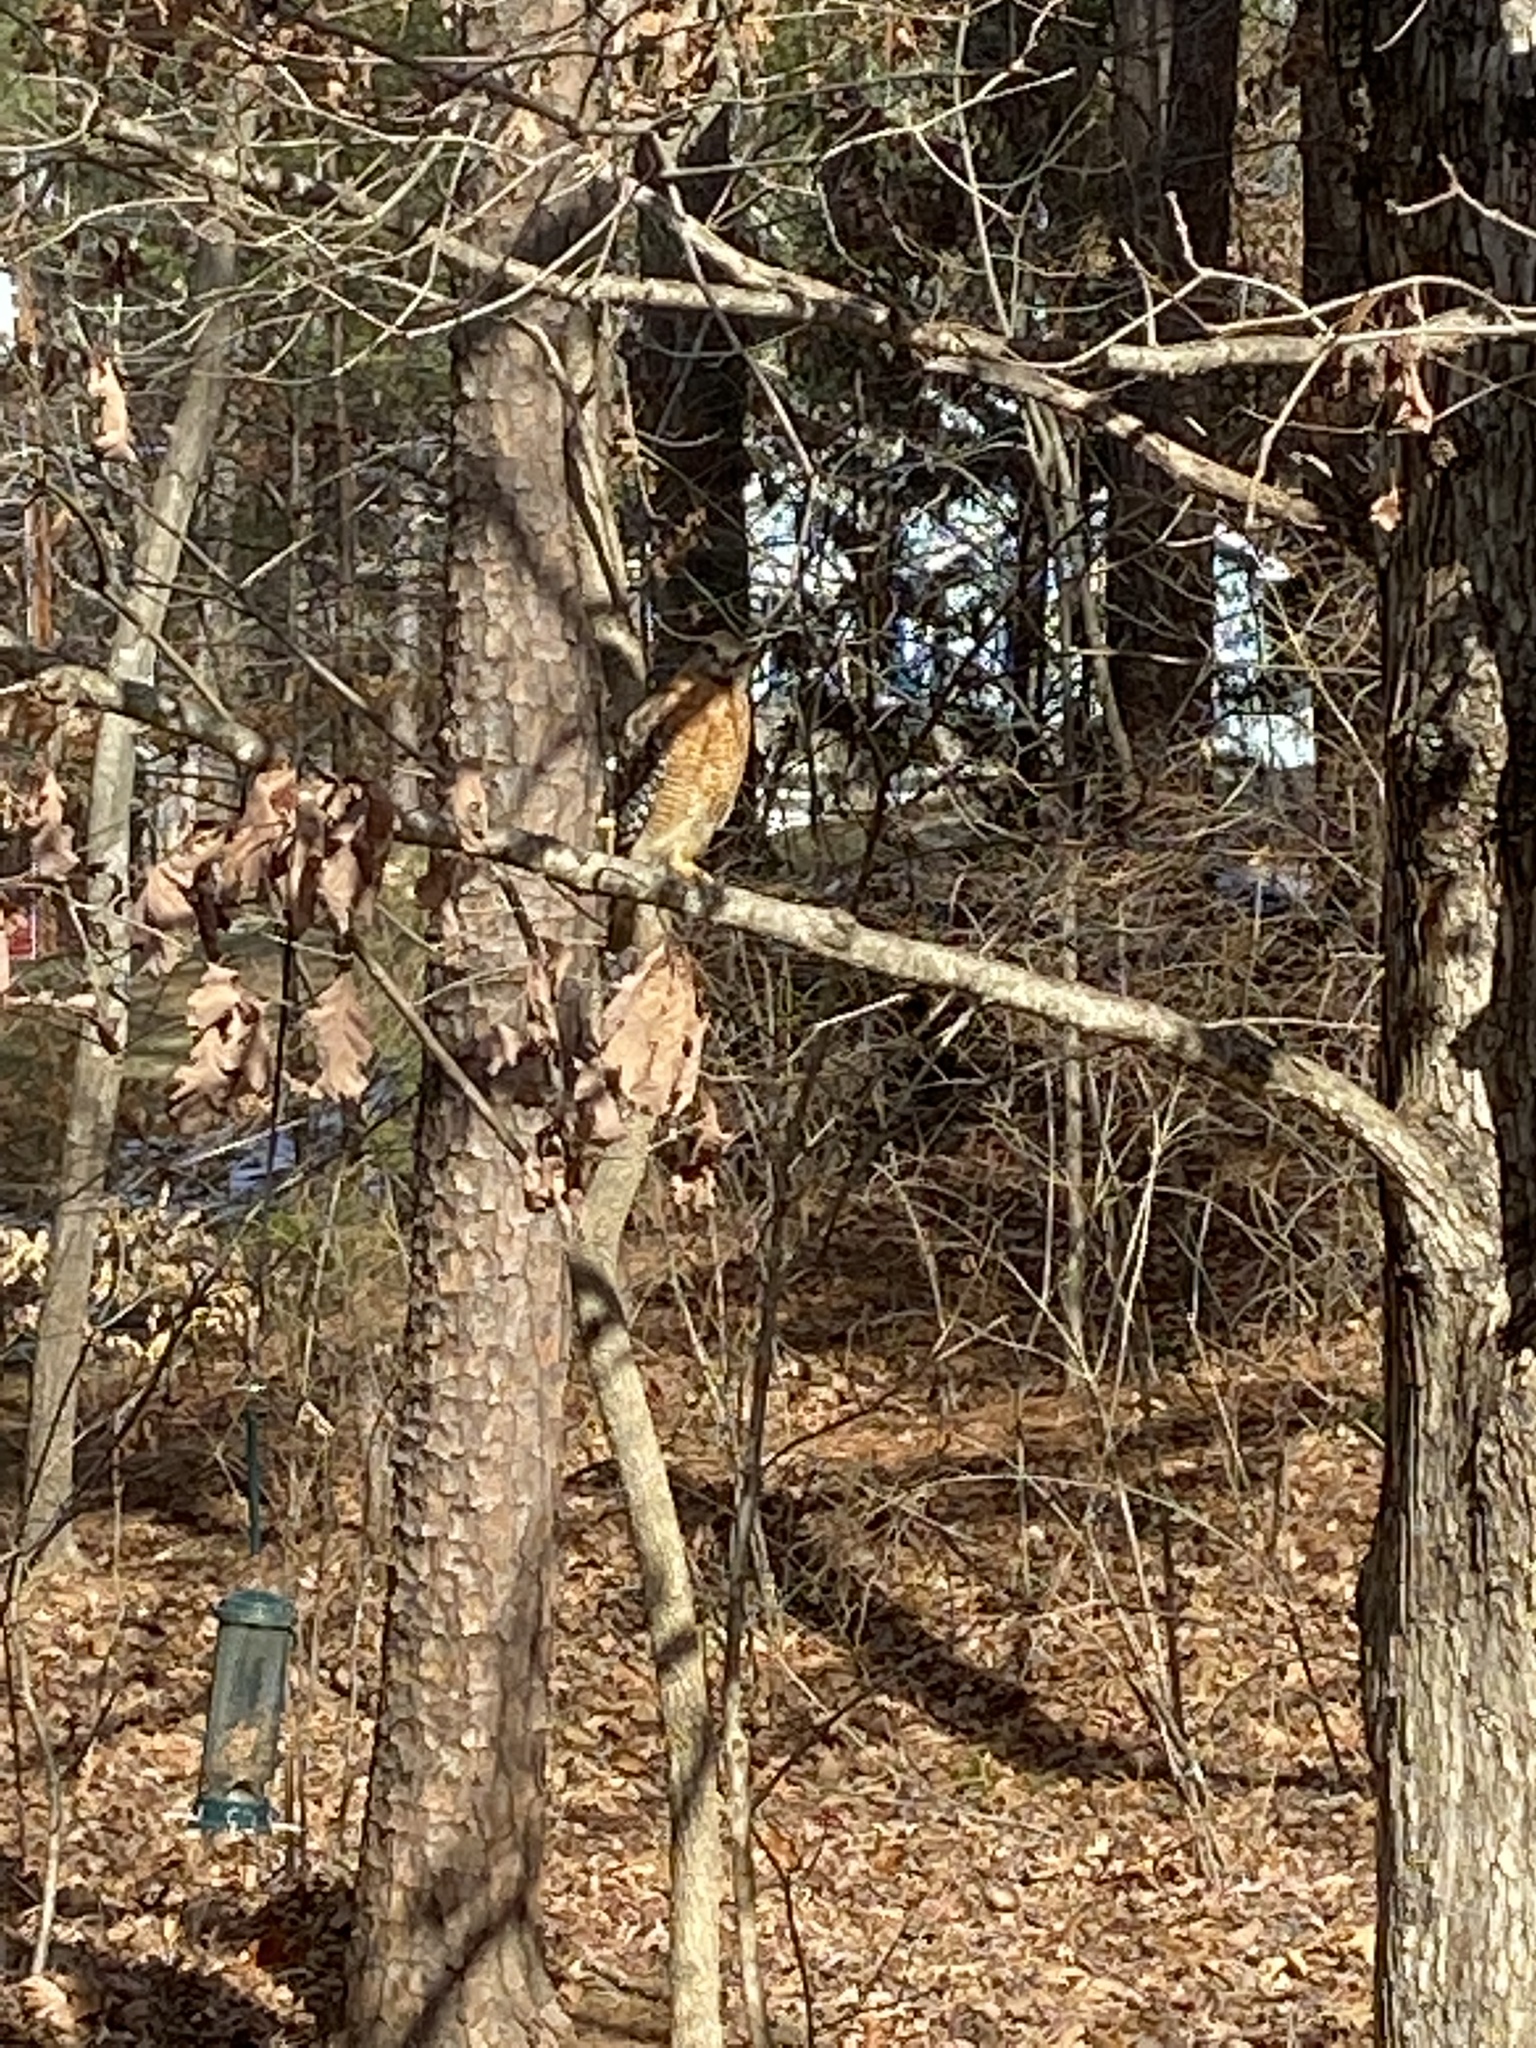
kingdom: Animalia
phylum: Chordata
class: Aves
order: Accipitriformes
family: Accipitridae
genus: Buteo
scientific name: Buteo lineatus
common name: Red-shouldered hawk
